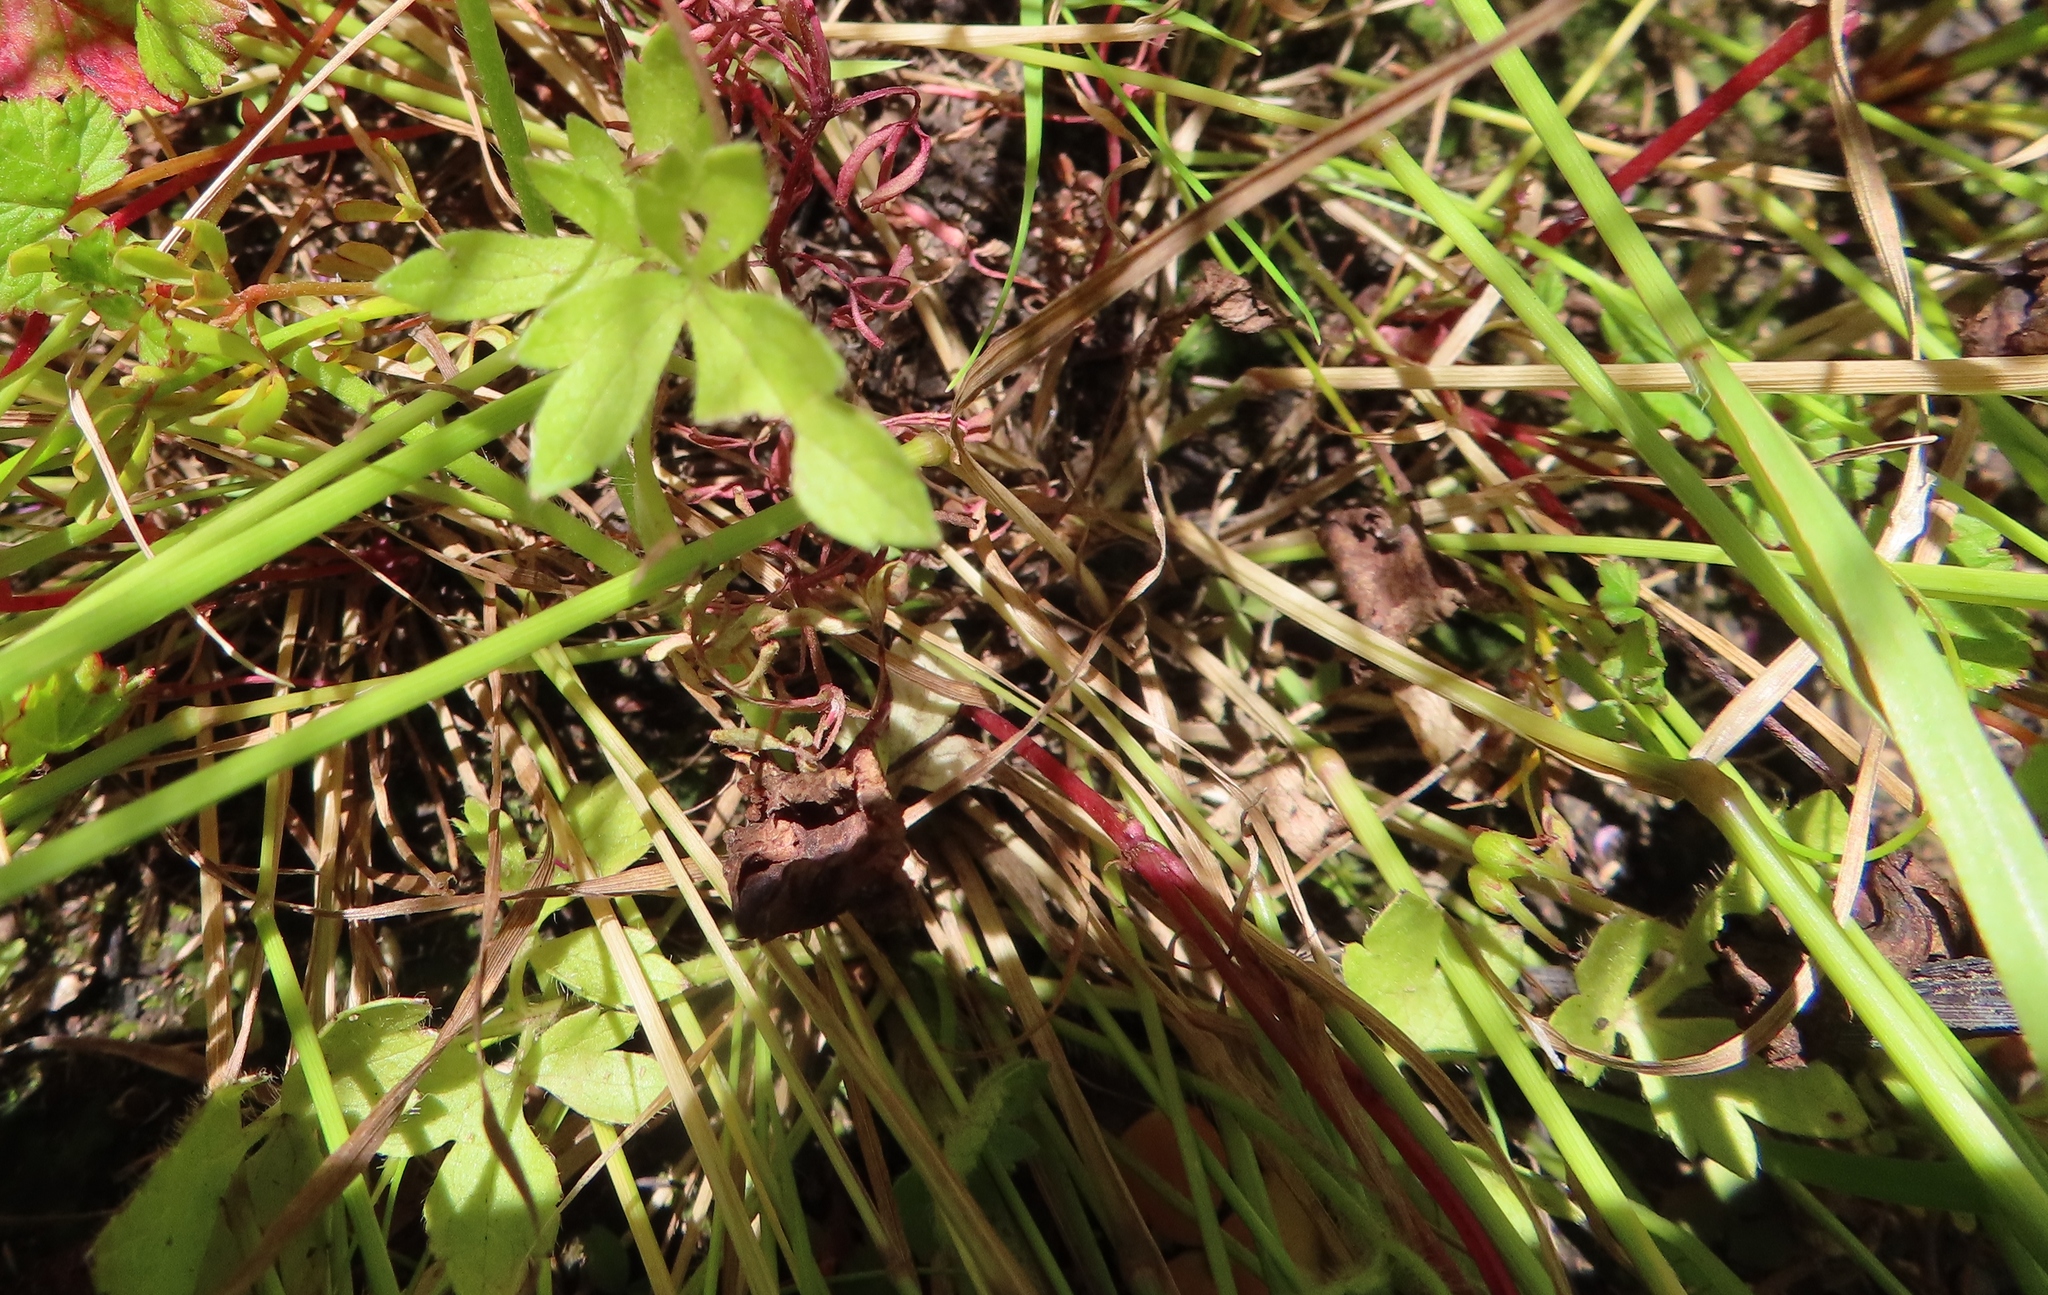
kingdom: Plantae
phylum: Tracheophyta
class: Magnoliopsida
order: Ranunculales
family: Ranunculaceae
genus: Ranunculus
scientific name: Ranunculus multifidus
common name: Wild buttercup
